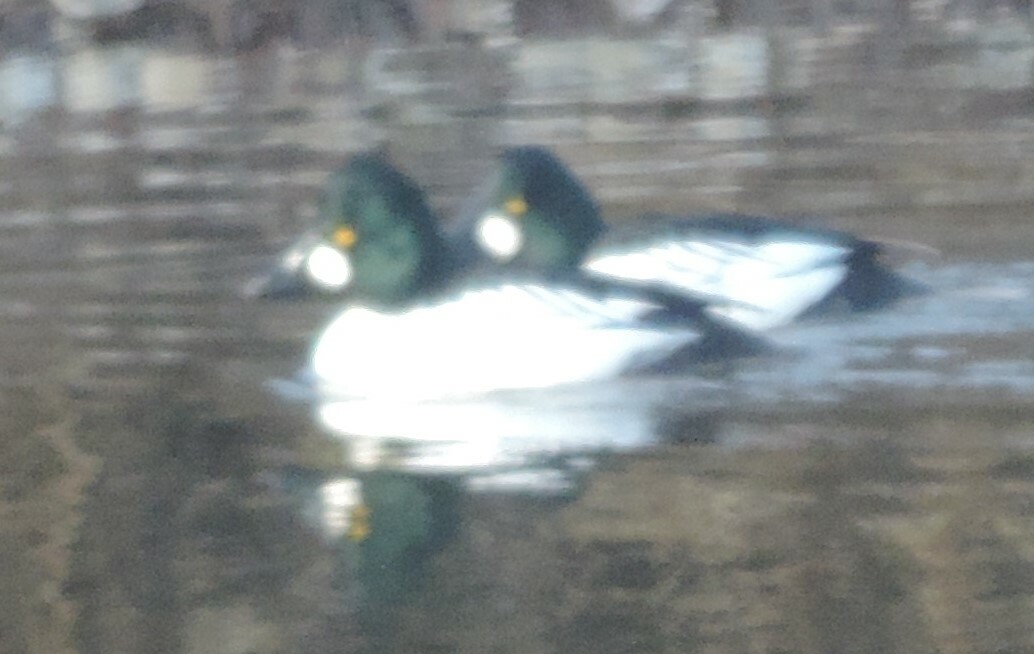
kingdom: Animalia
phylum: Chordata
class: Aves
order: Anseriformes
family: Anatidae
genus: Bucephala
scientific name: Bucephala clangula
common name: Common goldeneye
